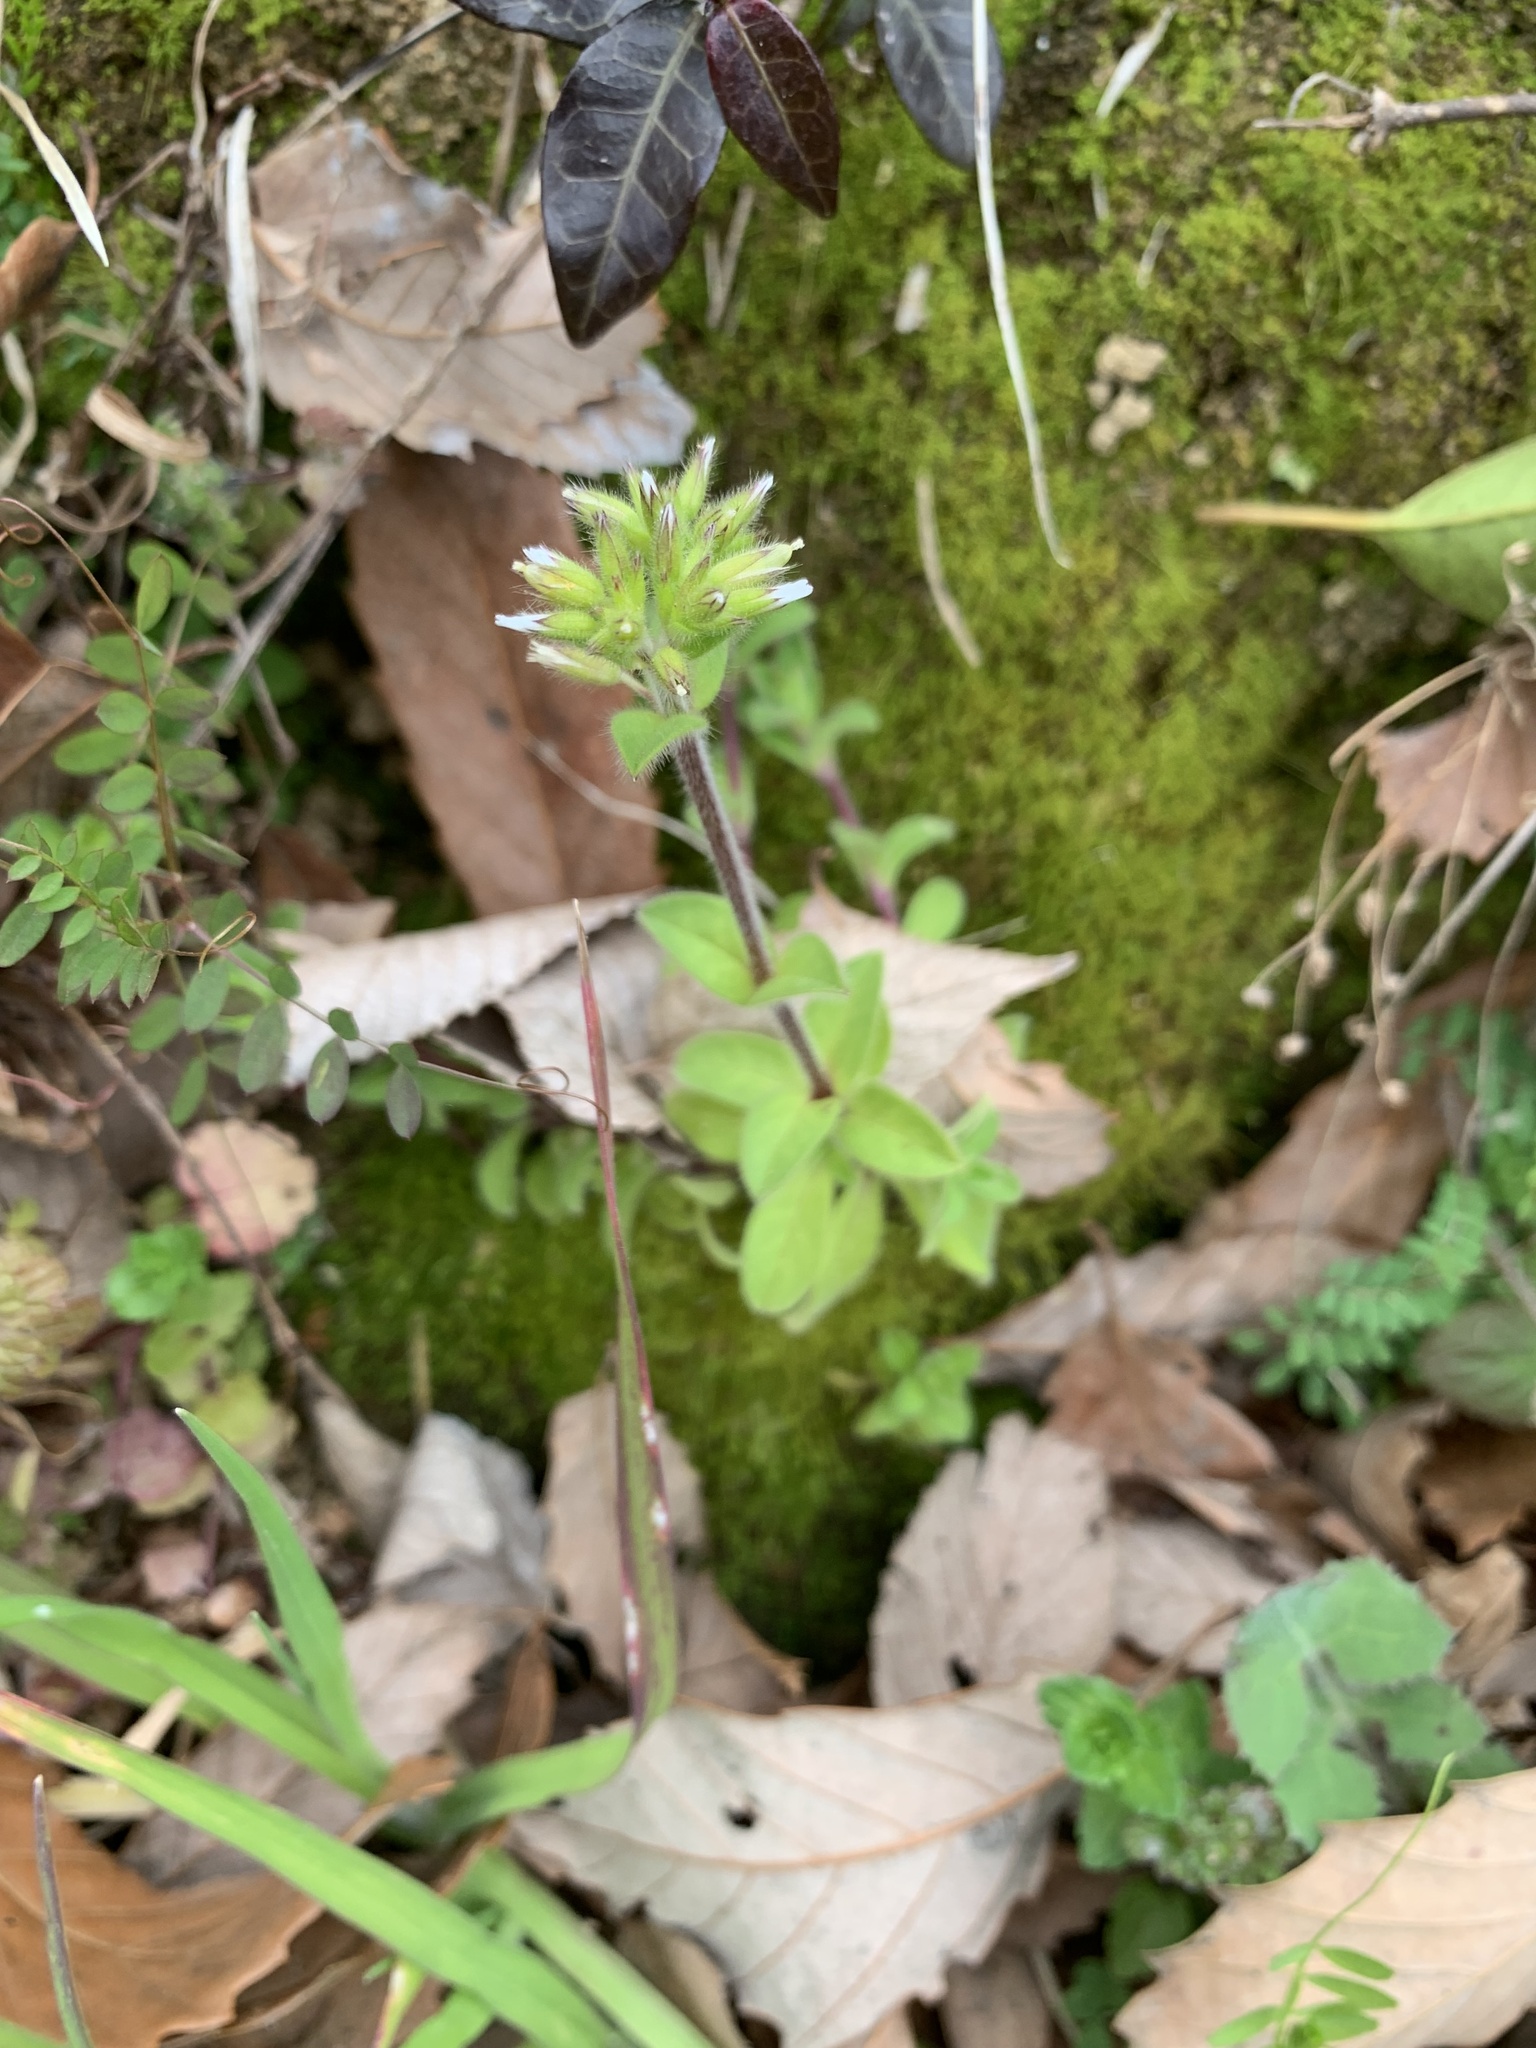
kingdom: Plantae
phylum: Tracheophyta
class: Magnoliopsida
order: Caryophyllales
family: Caryophyllaceae
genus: Cerastium
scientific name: Cerastium glomeratum
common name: Sticky chickweed
